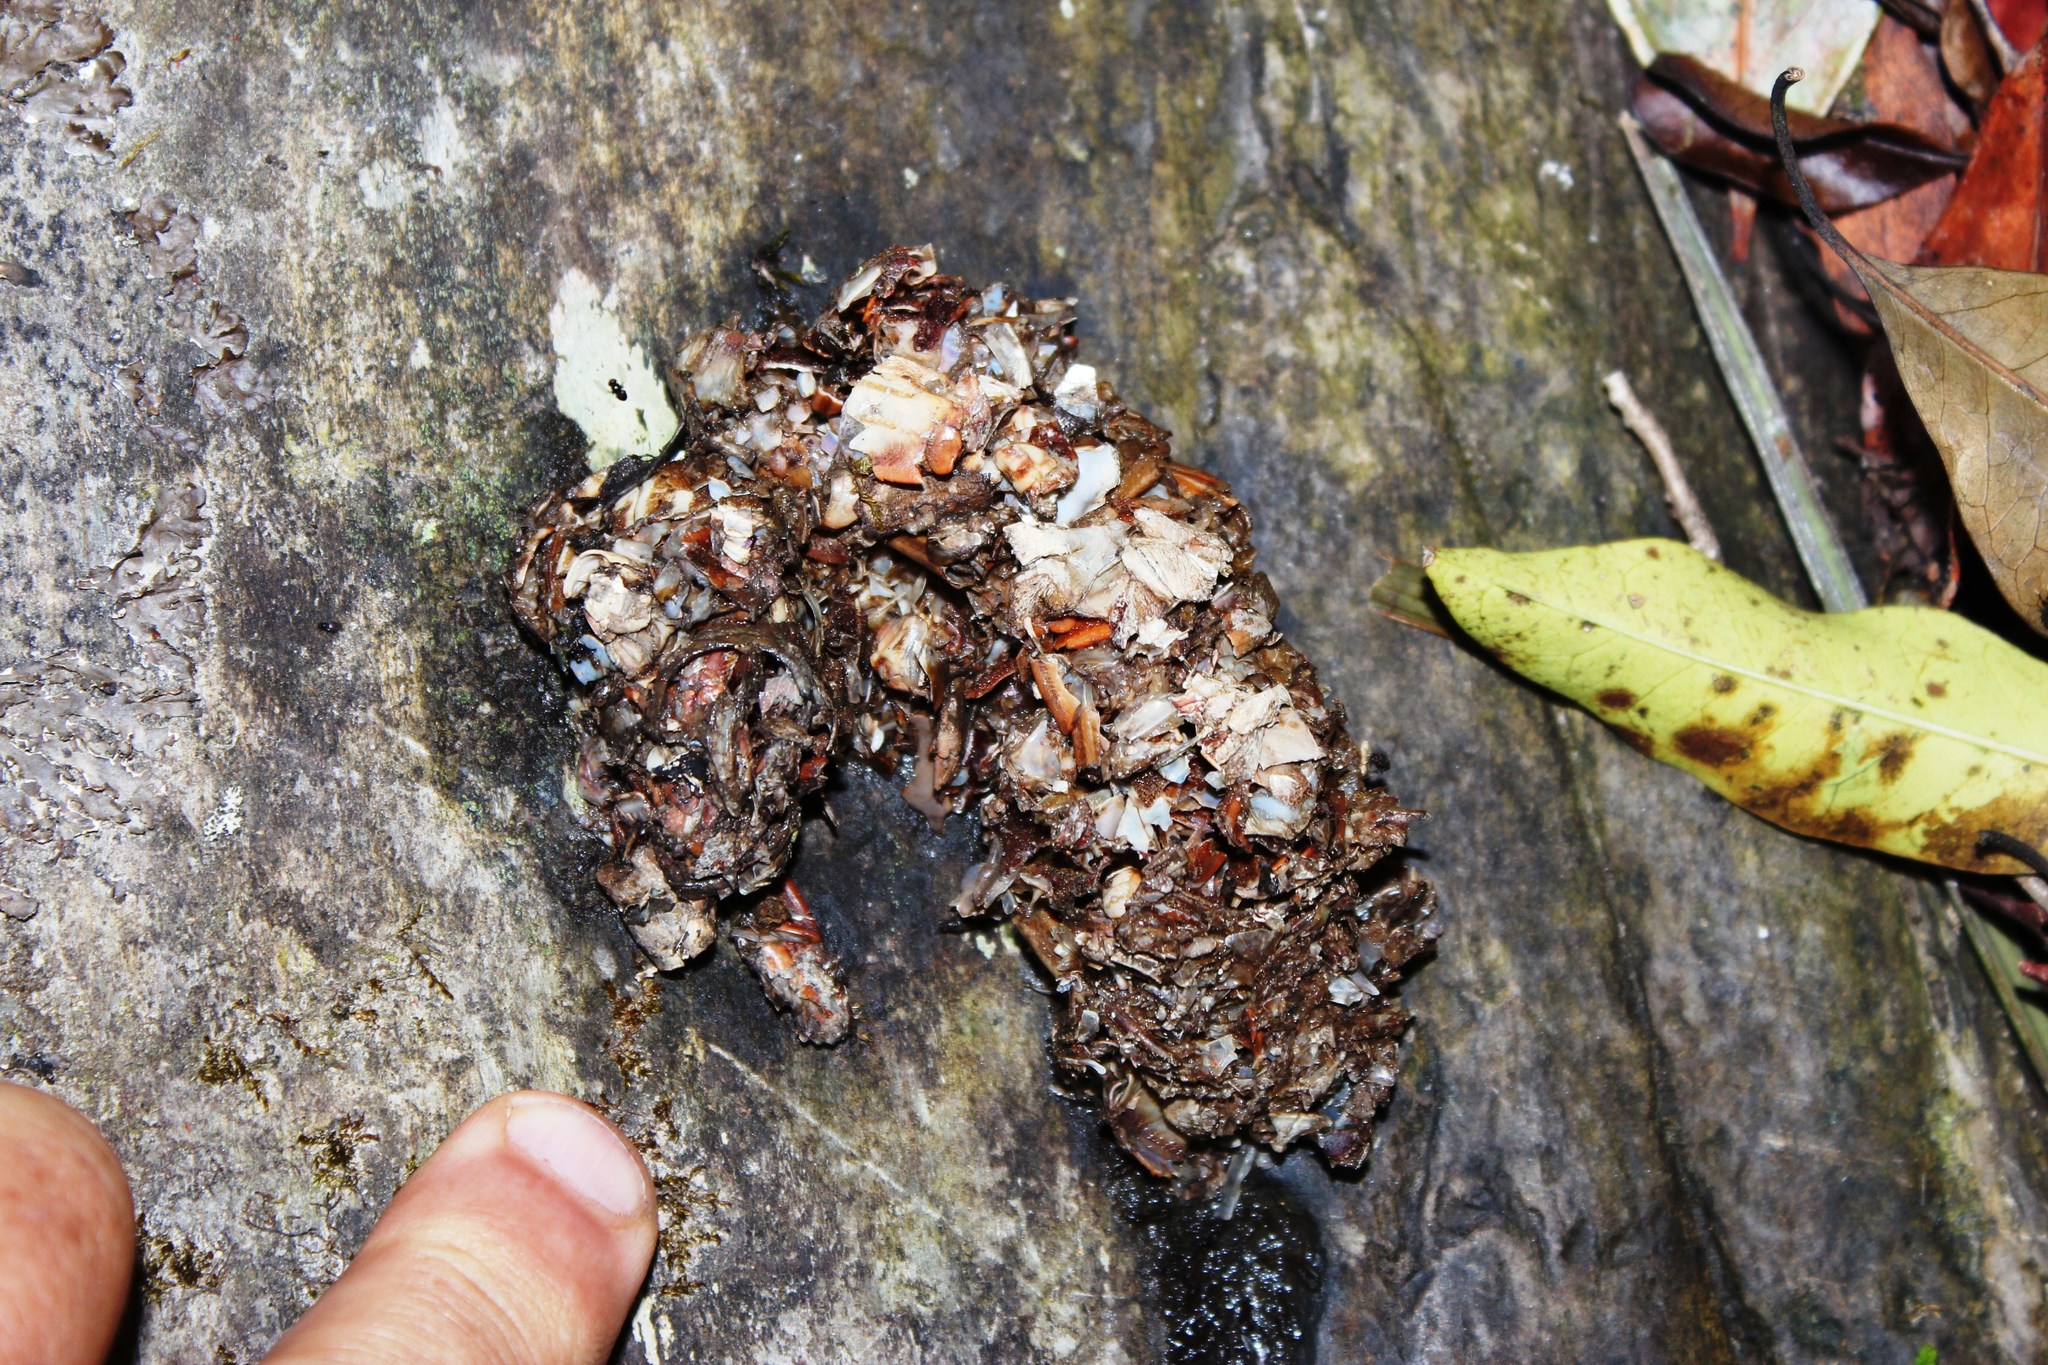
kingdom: Animalia
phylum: Chordata
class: Mammalia
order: Carnivora
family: Mustelidae
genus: Aonyx
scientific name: Aonyx capensis
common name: African clawless otter
